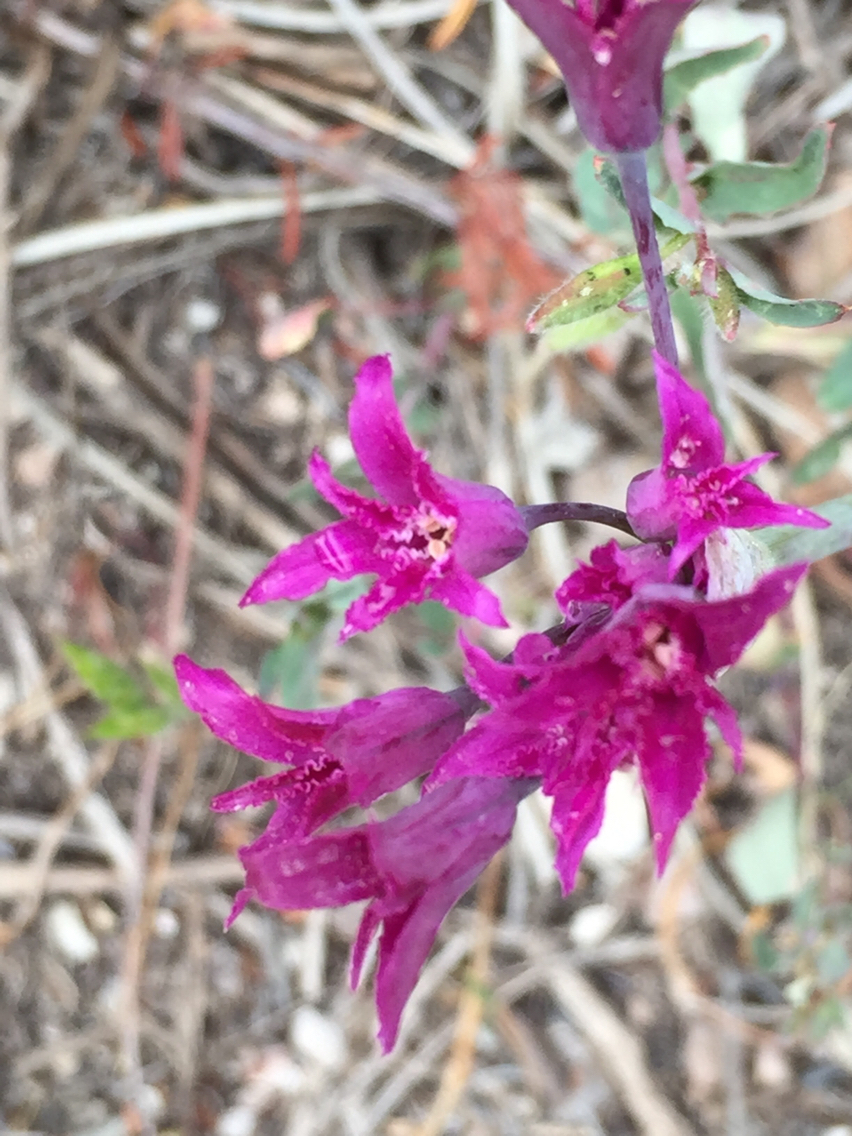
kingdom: Plantae
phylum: Tracheophyta
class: Liliopsida
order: Asparagales
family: Amaryllidaceae
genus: Allium
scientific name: Allium crispum
